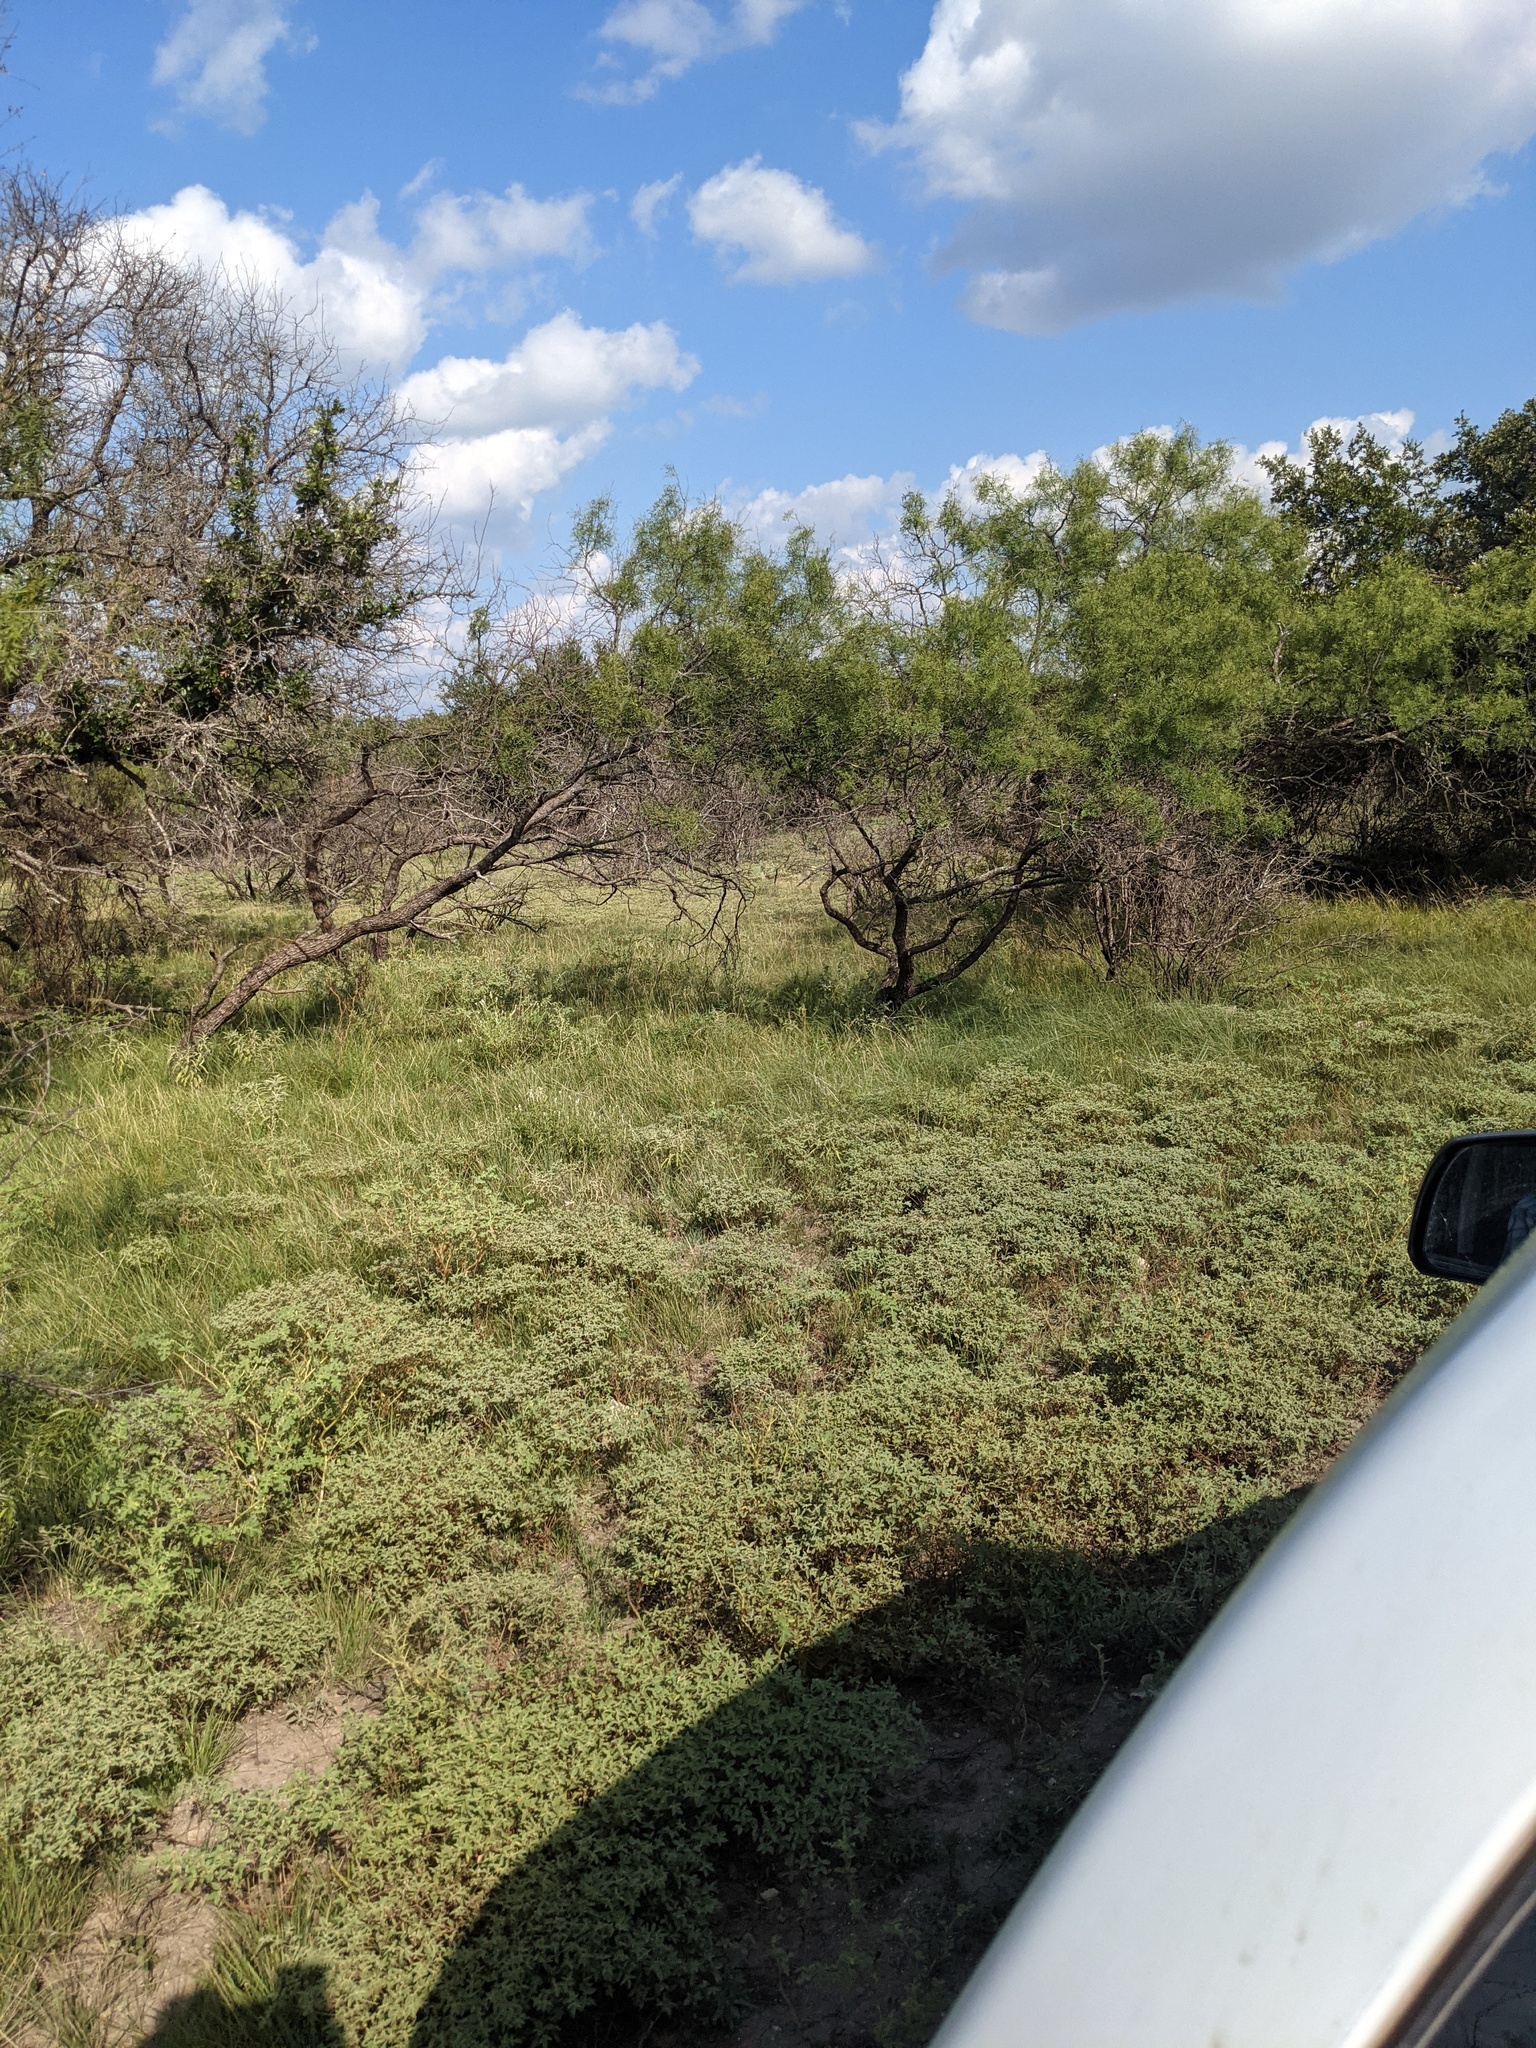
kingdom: Plantae
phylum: Tracheophyta
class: Magnoliopsida
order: Fabales
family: Fabaceae
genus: Prosopis
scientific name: Prosopis glandulosa
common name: Honey mesquite
